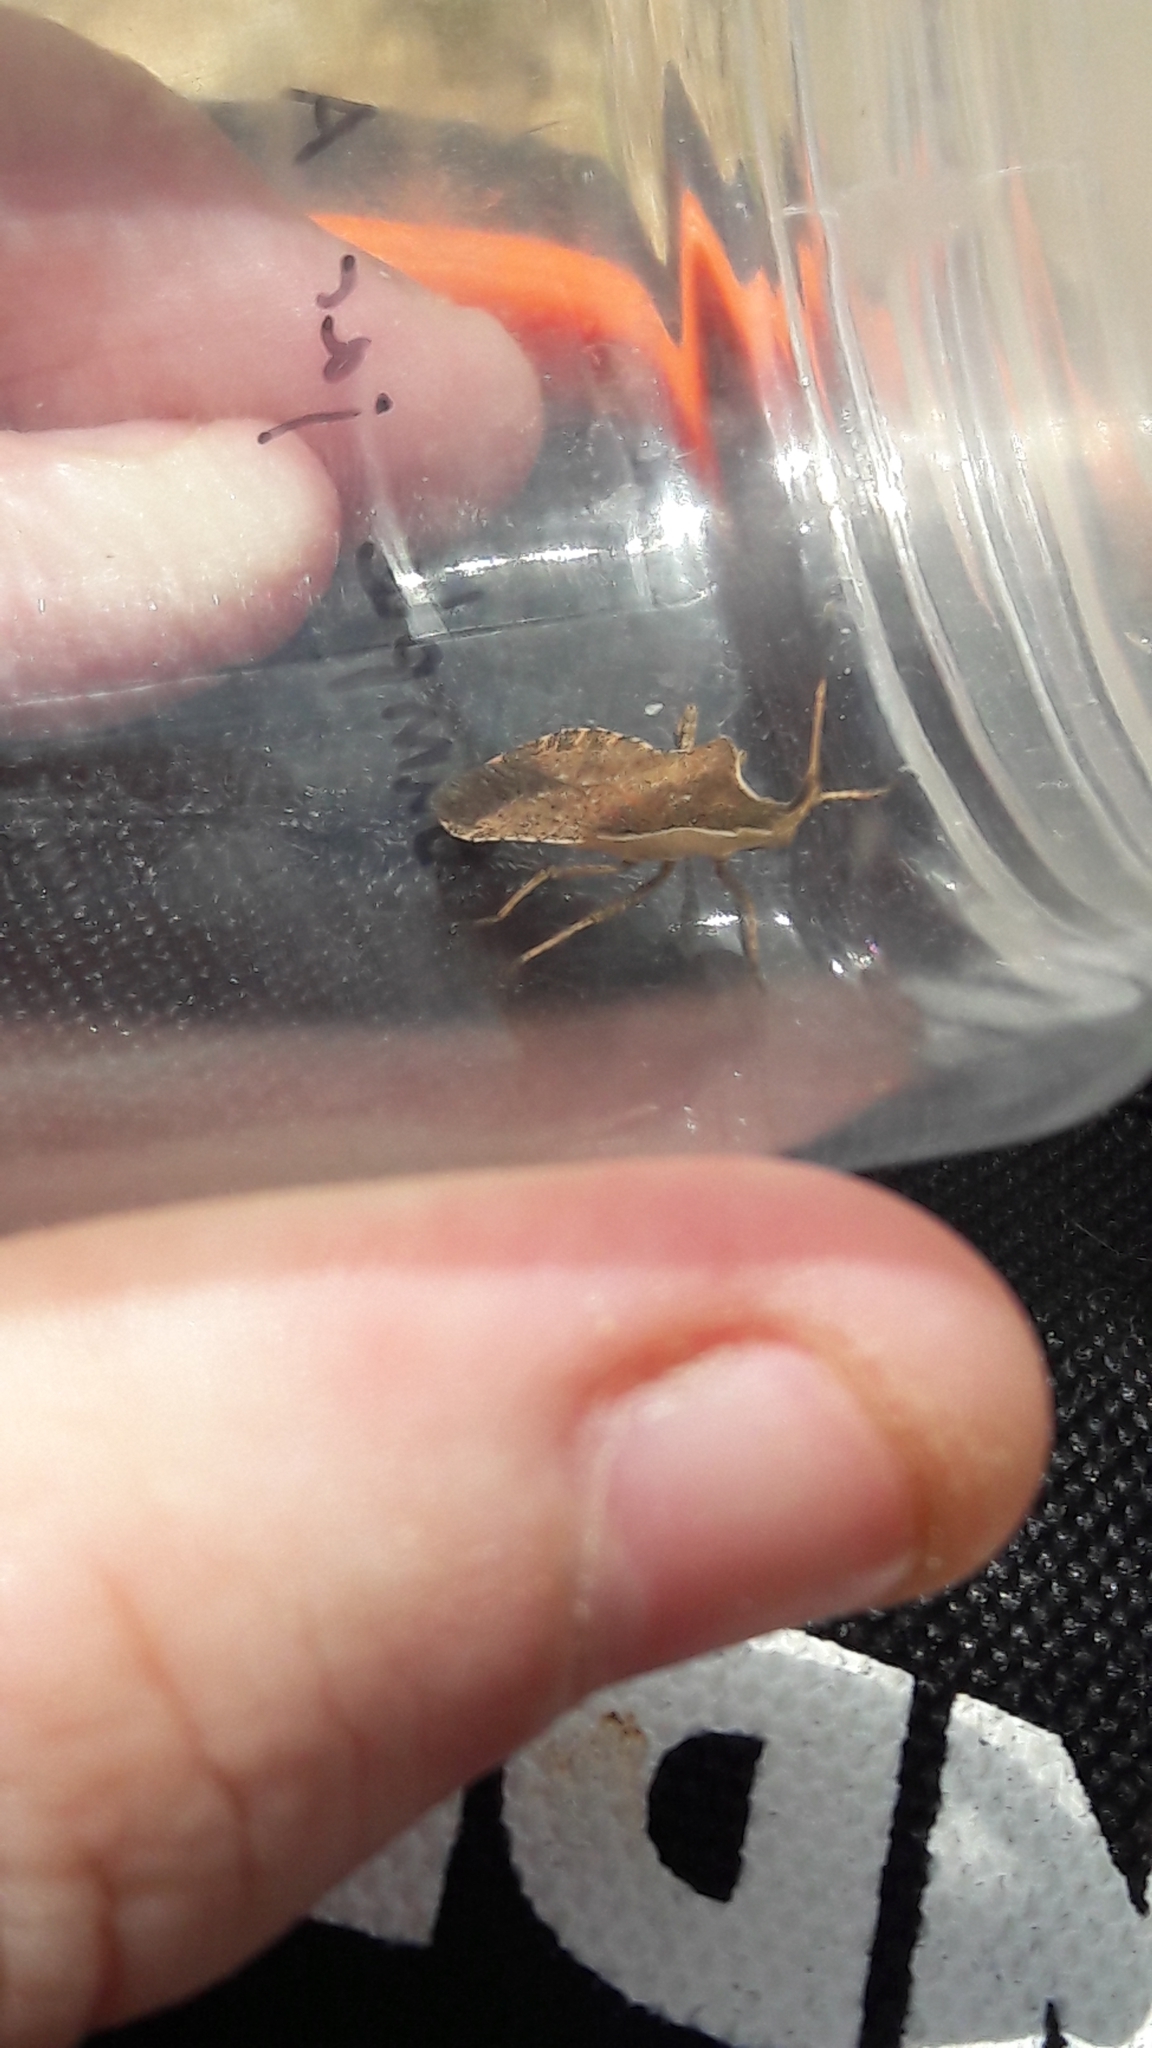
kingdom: Animalia
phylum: Arthropoda
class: Insecta
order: Hemiptera
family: Coreidae
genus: Enoplops
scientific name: Enoplops disciger
